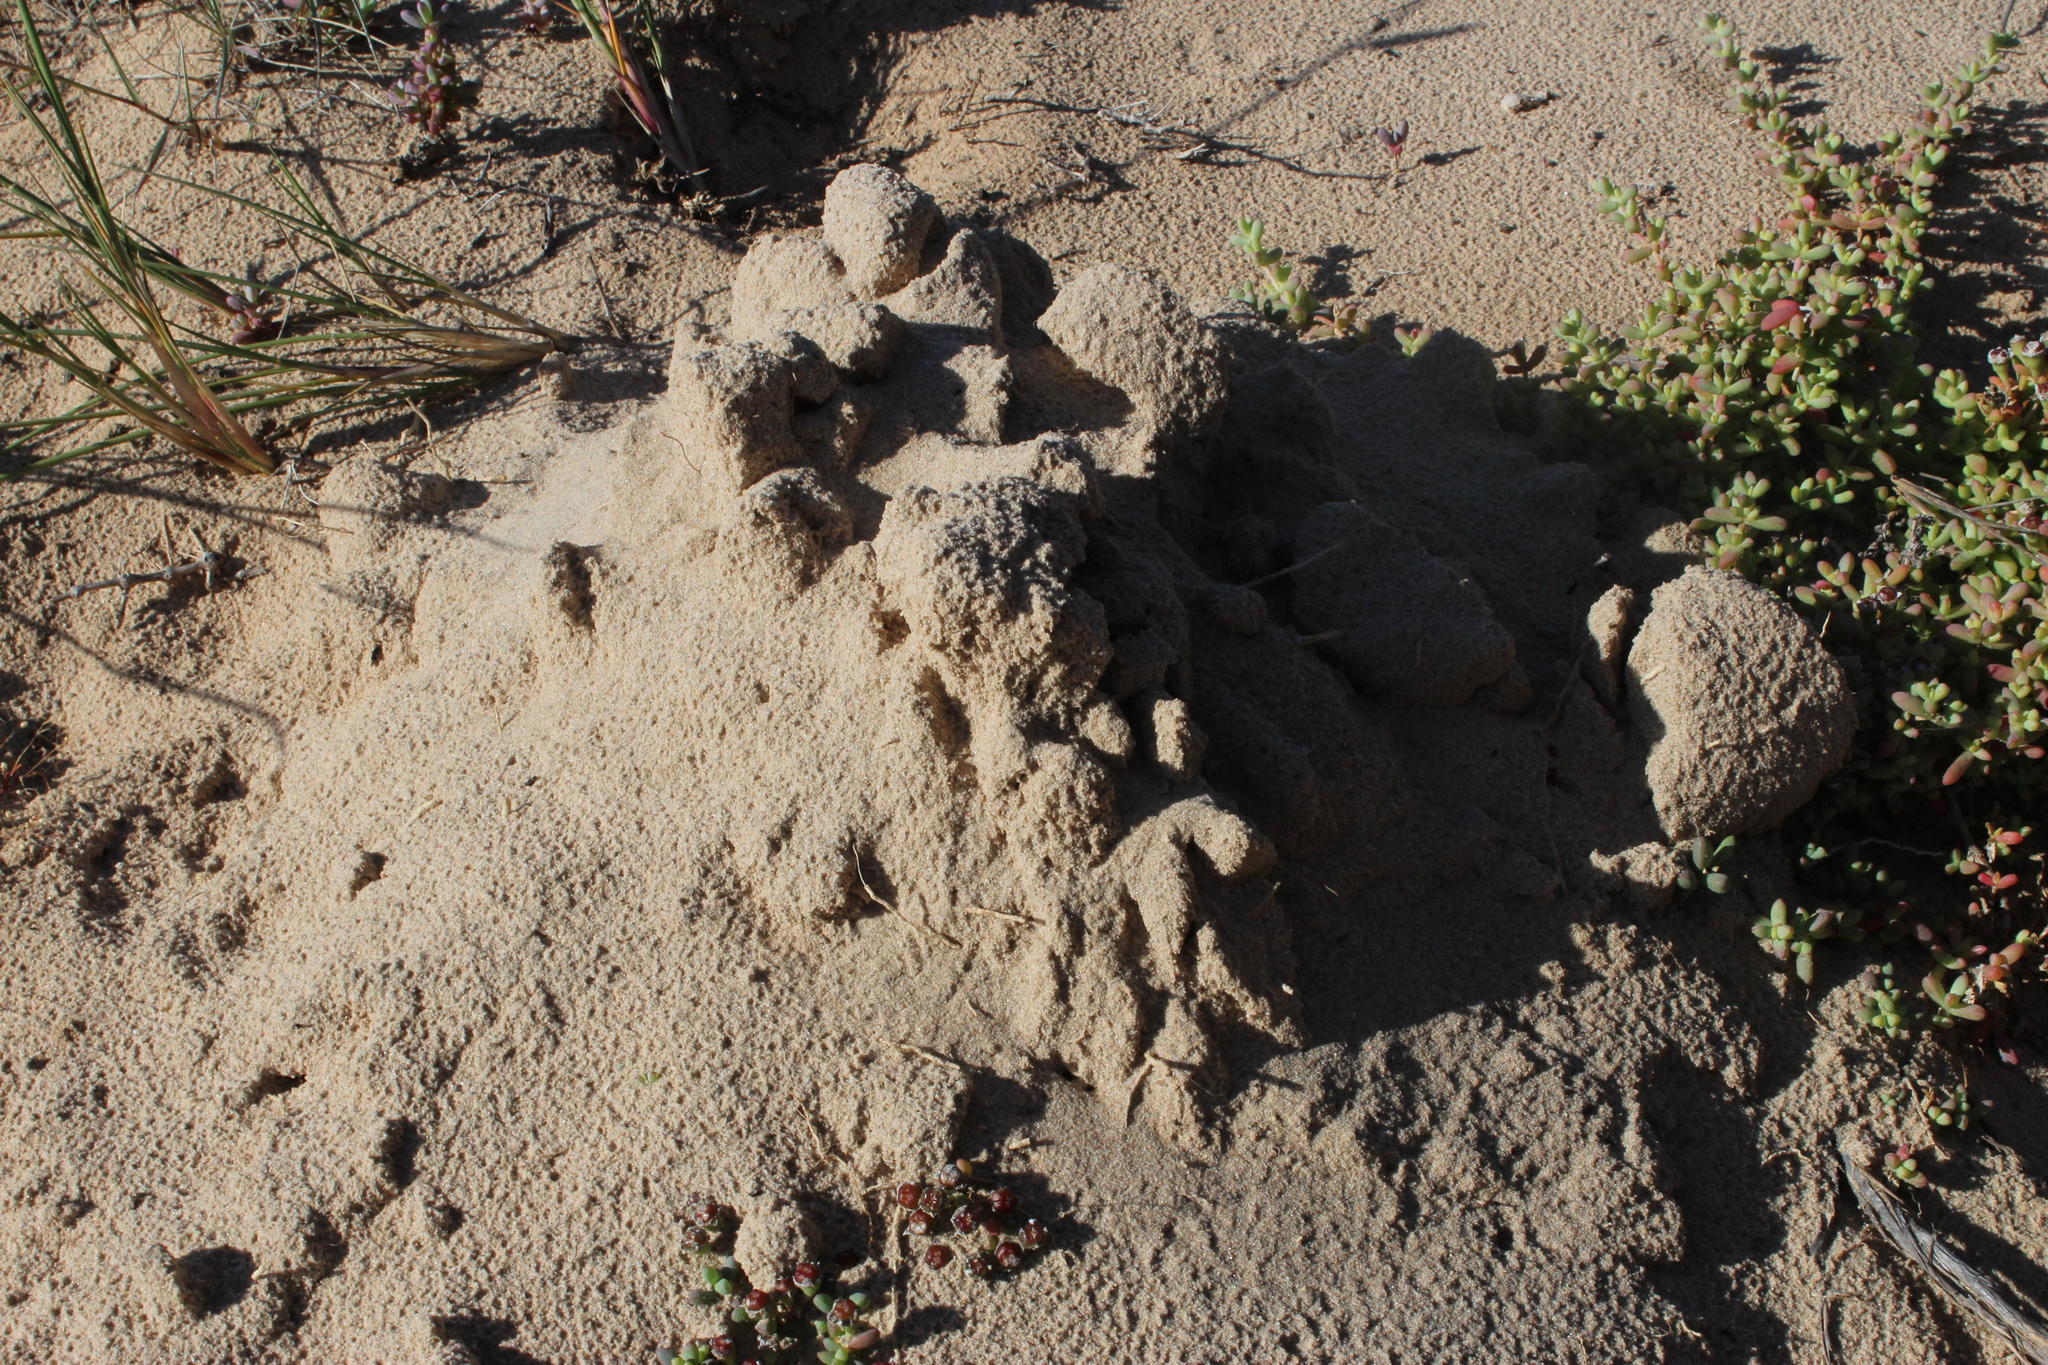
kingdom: Animalia
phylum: Chordata
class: Mammalia
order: Rodentia
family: Bathyergidae
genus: Bathyergus
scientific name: Bathyergus janetta
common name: Namaqua dune mole-rat
